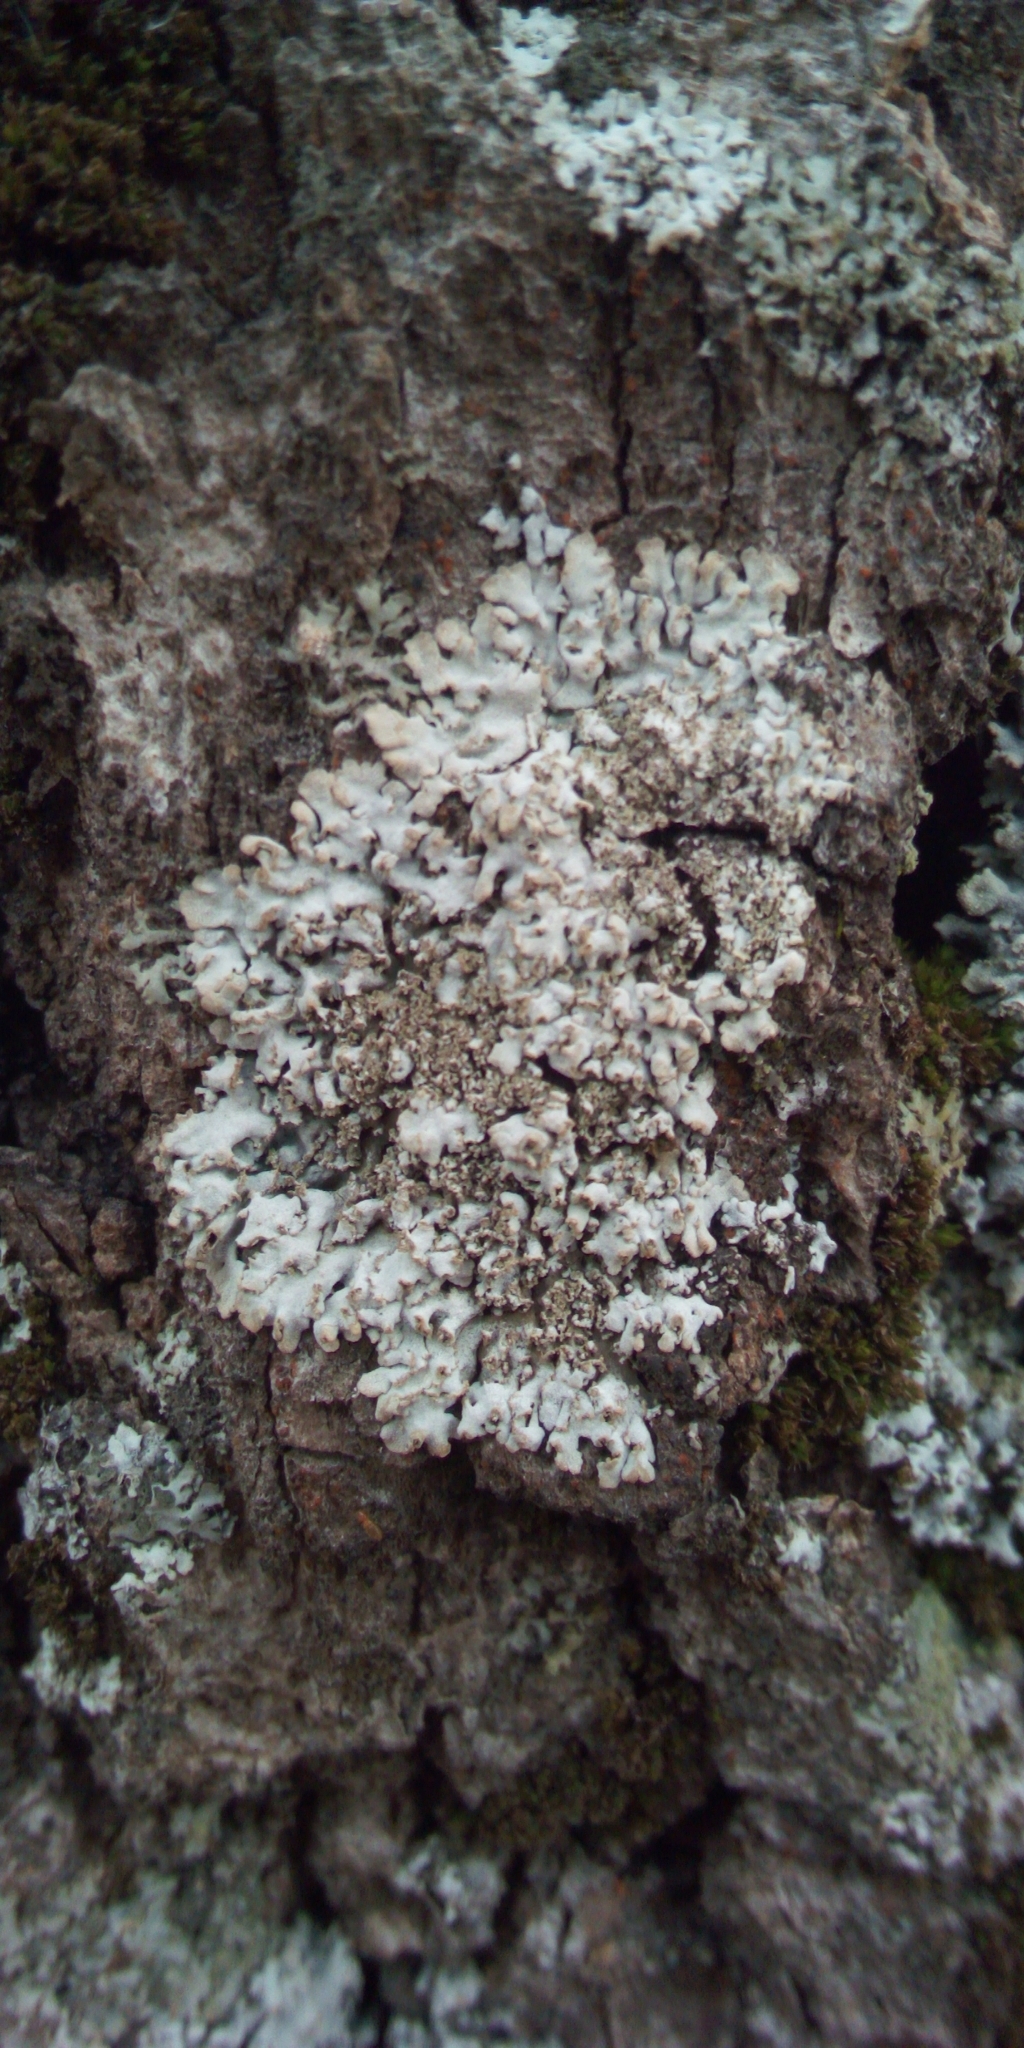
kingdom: Fungi
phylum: Ascomycota
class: Lecanoromycetes
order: Caliciales
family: Physciaceae
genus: Physconia
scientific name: Physconia
